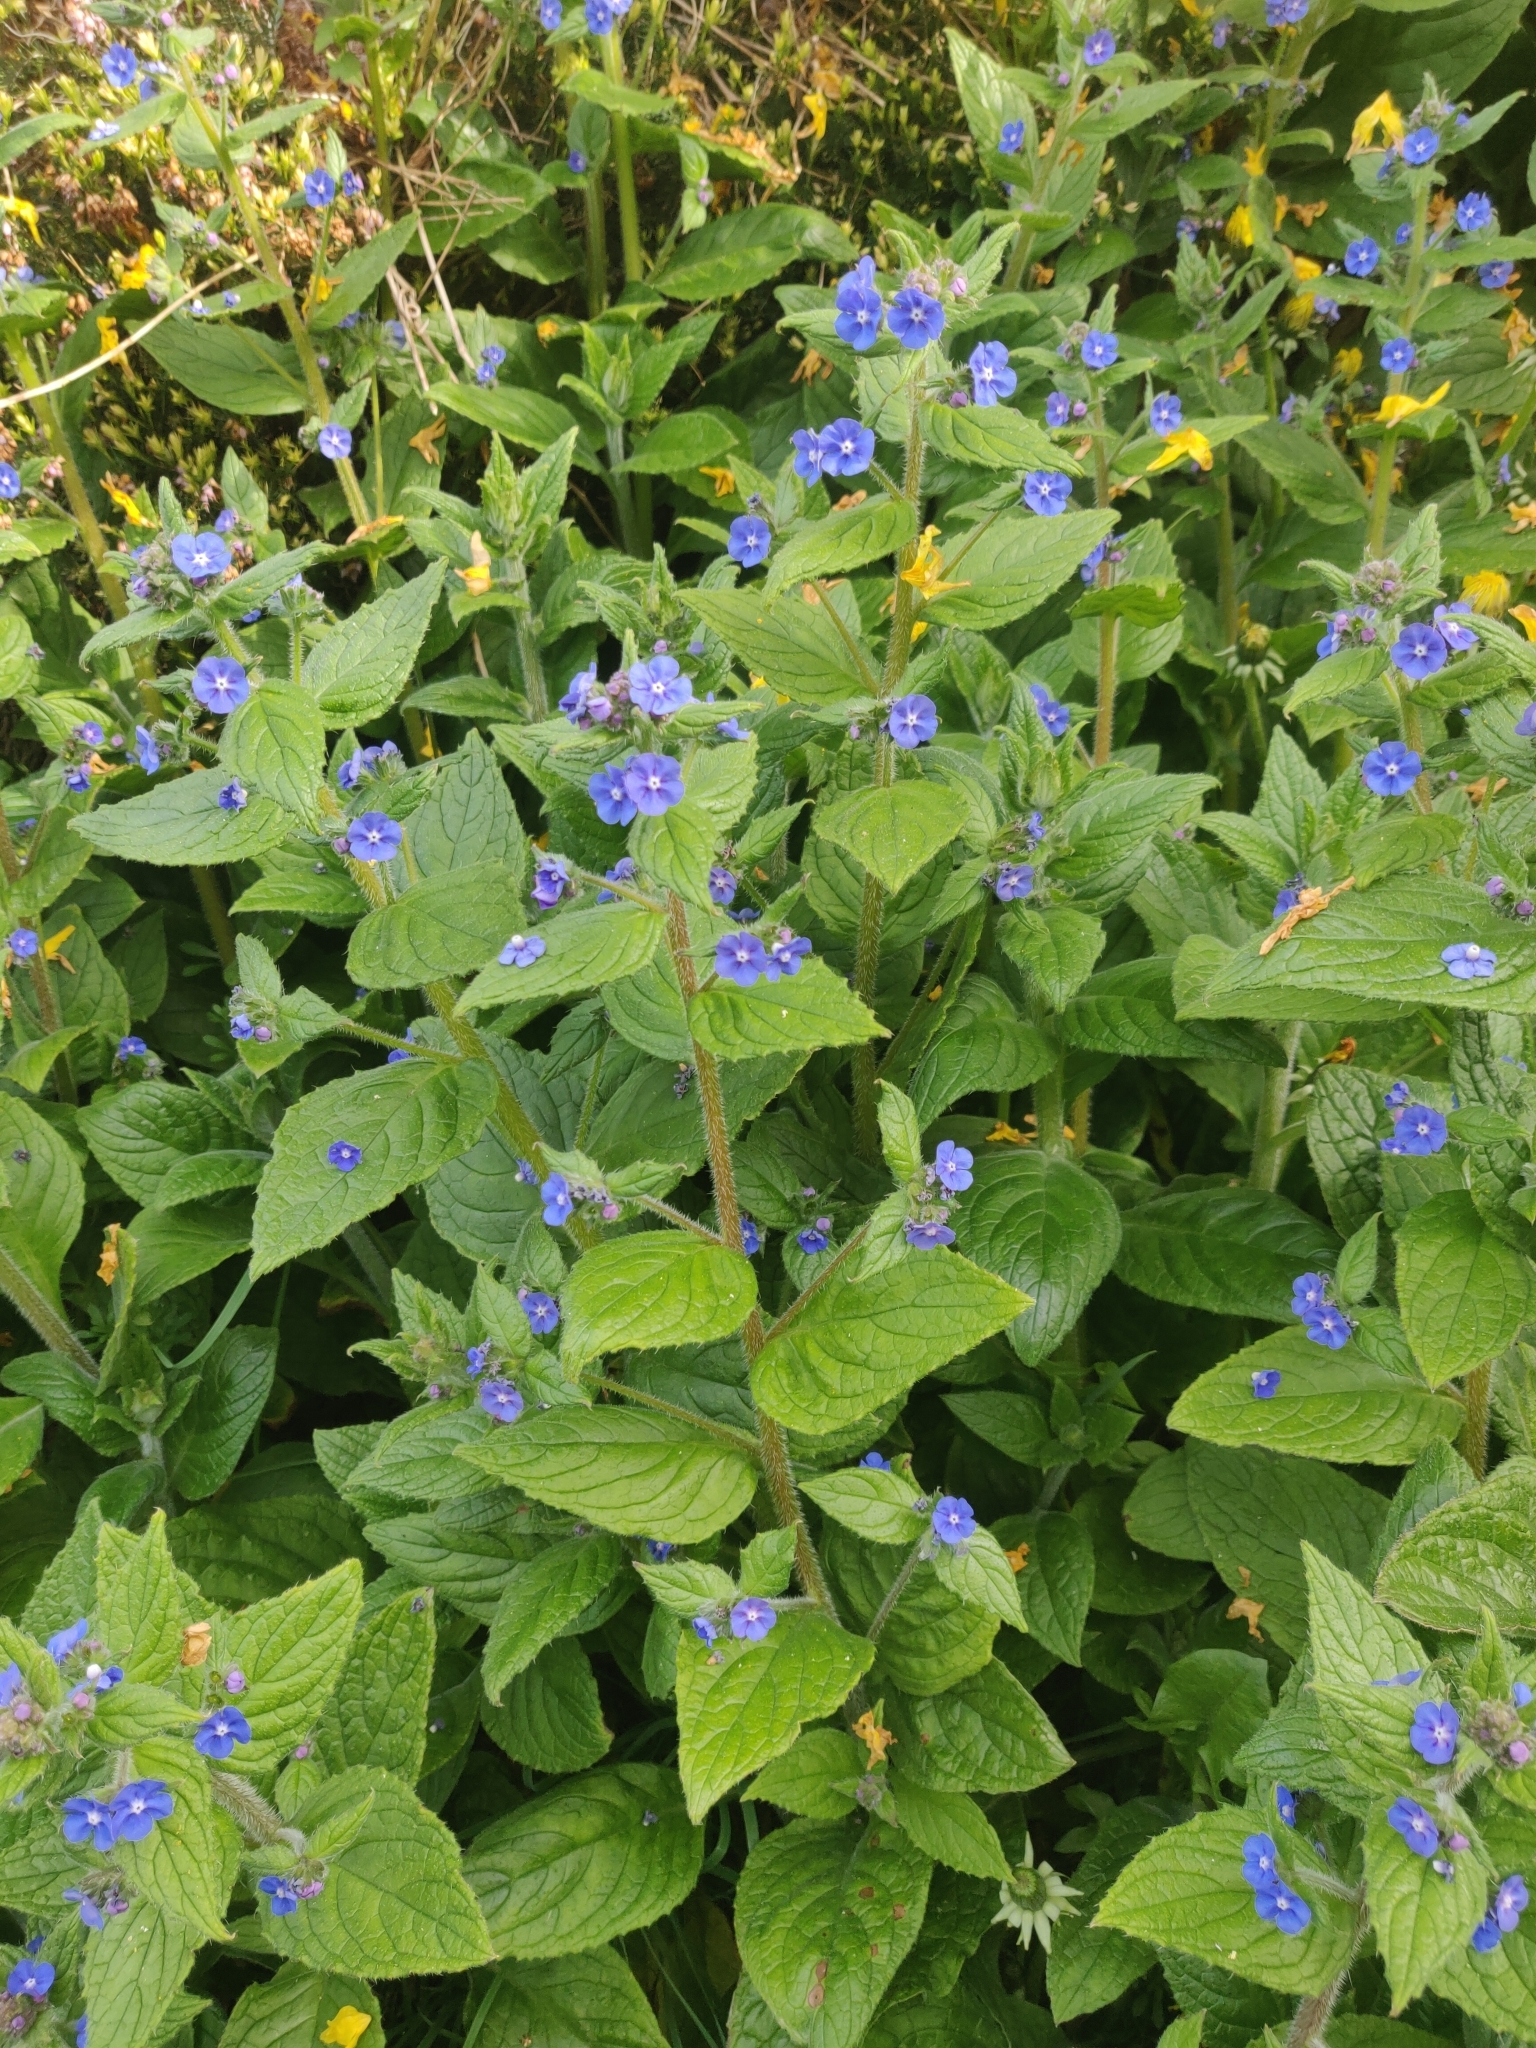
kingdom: Plantae
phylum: Tracheophyta
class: Magnoliopsida
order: Boraginales
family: Boraginaceae
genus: Pentaglottis
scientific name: Pentaglottis sempervirens
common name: Green alkanet
